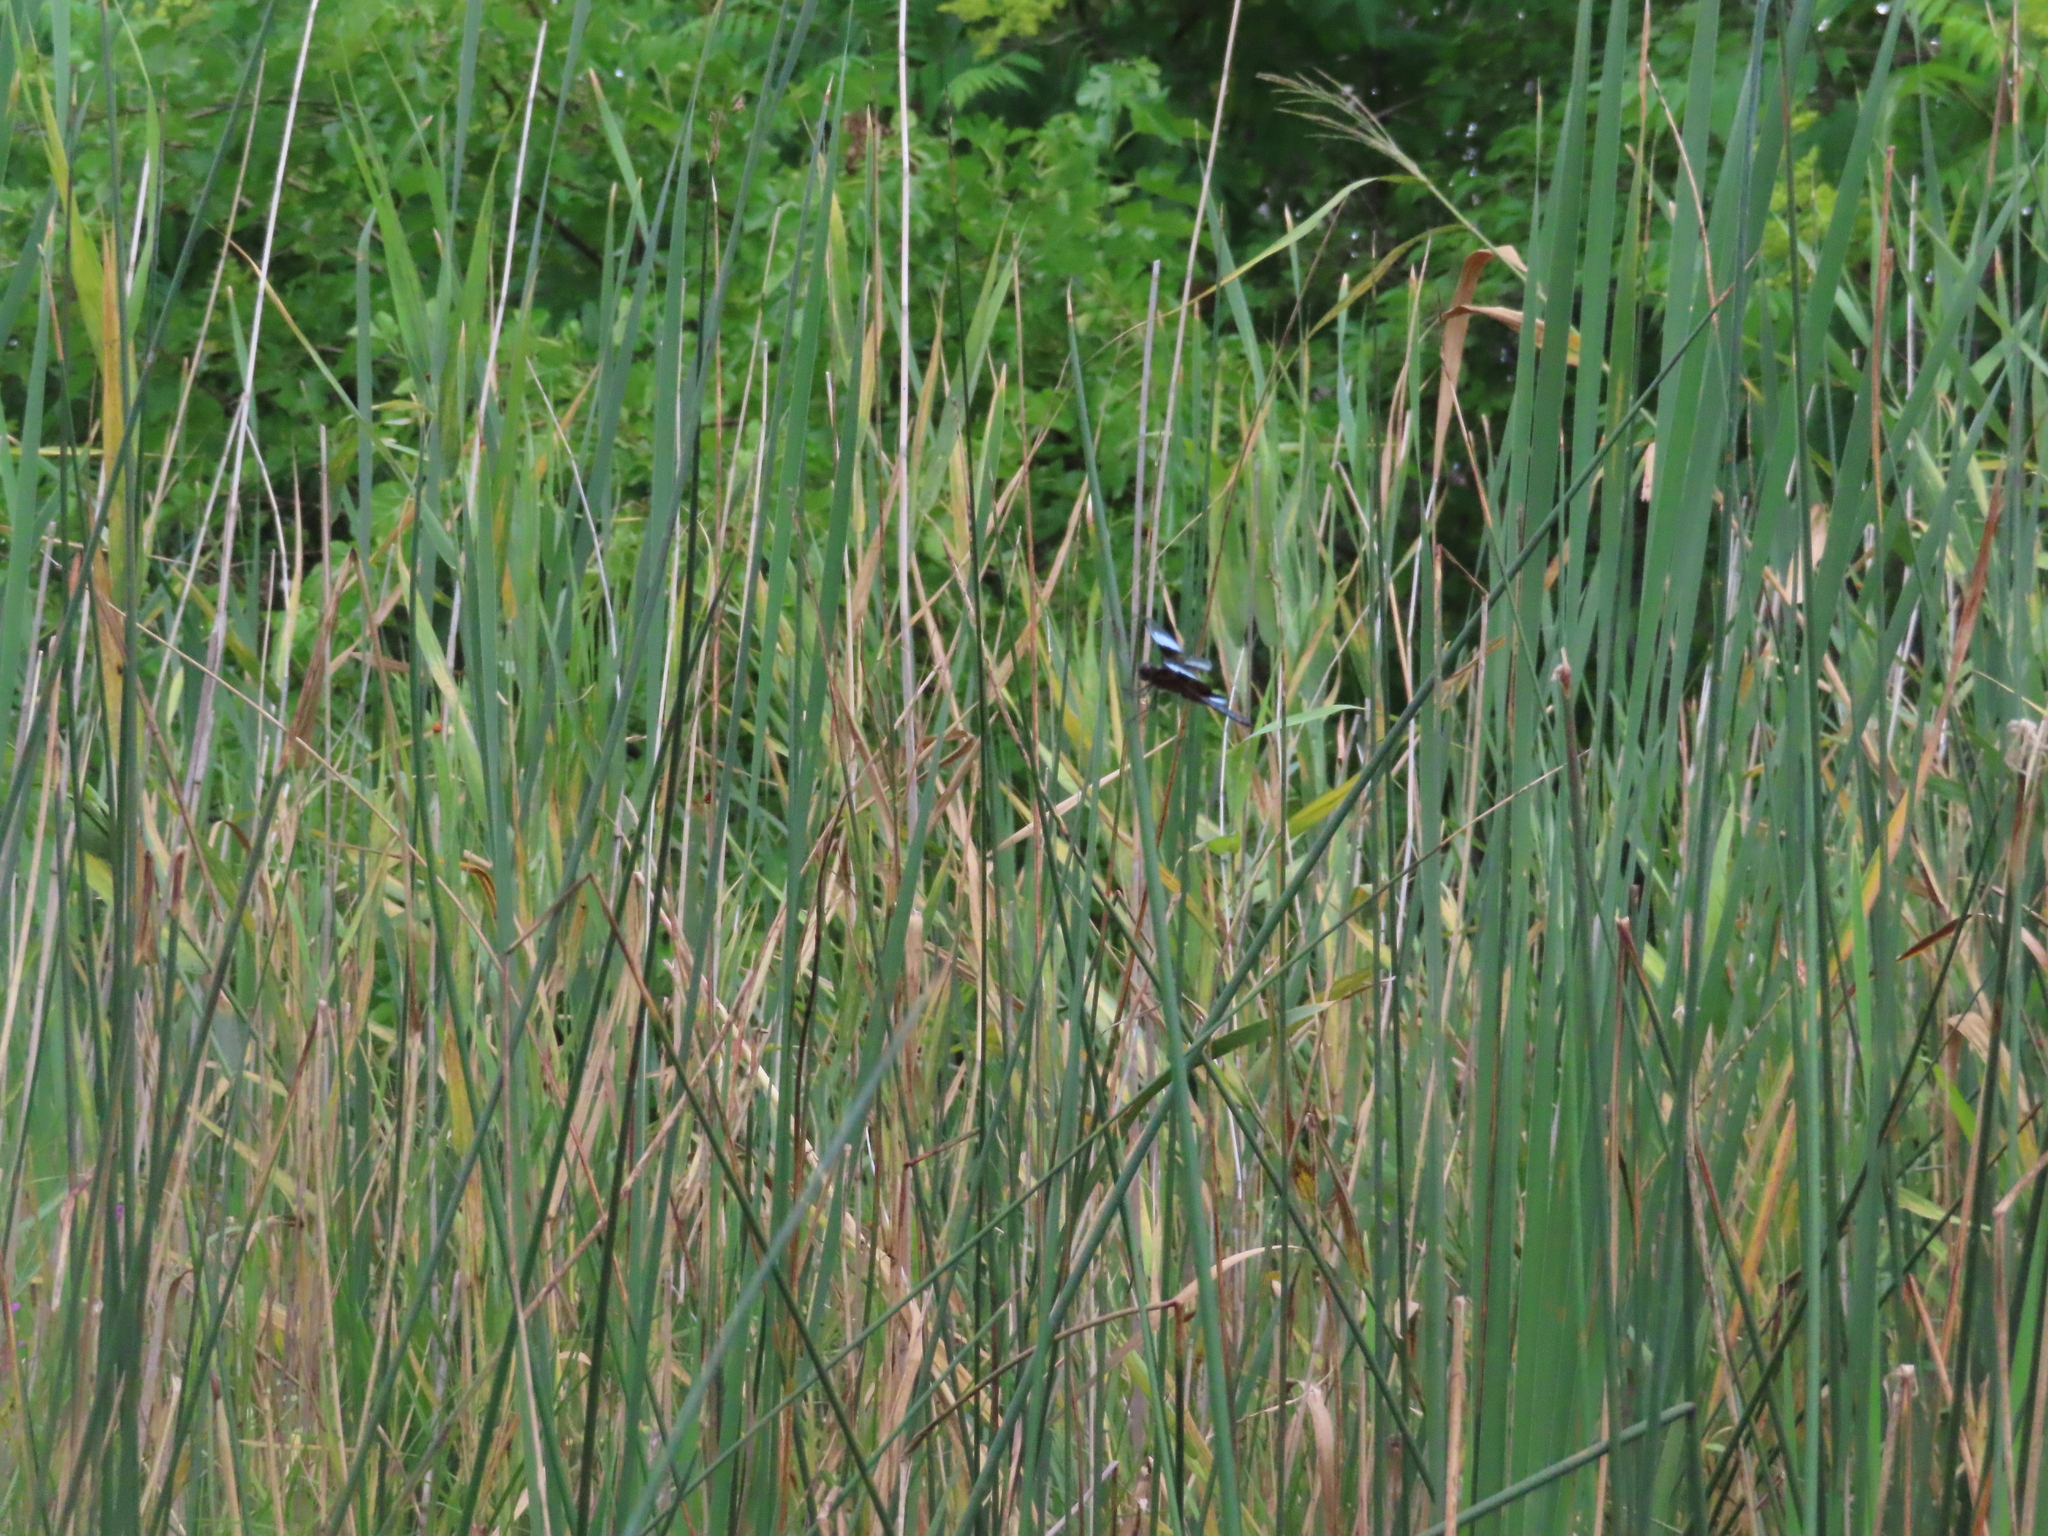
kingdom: Animalia
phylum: Arthropoda
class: Insecta
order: Odonata
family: Libellulidae
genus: Libellula
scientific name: Libellula luctuosa
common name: Widow skimmer
